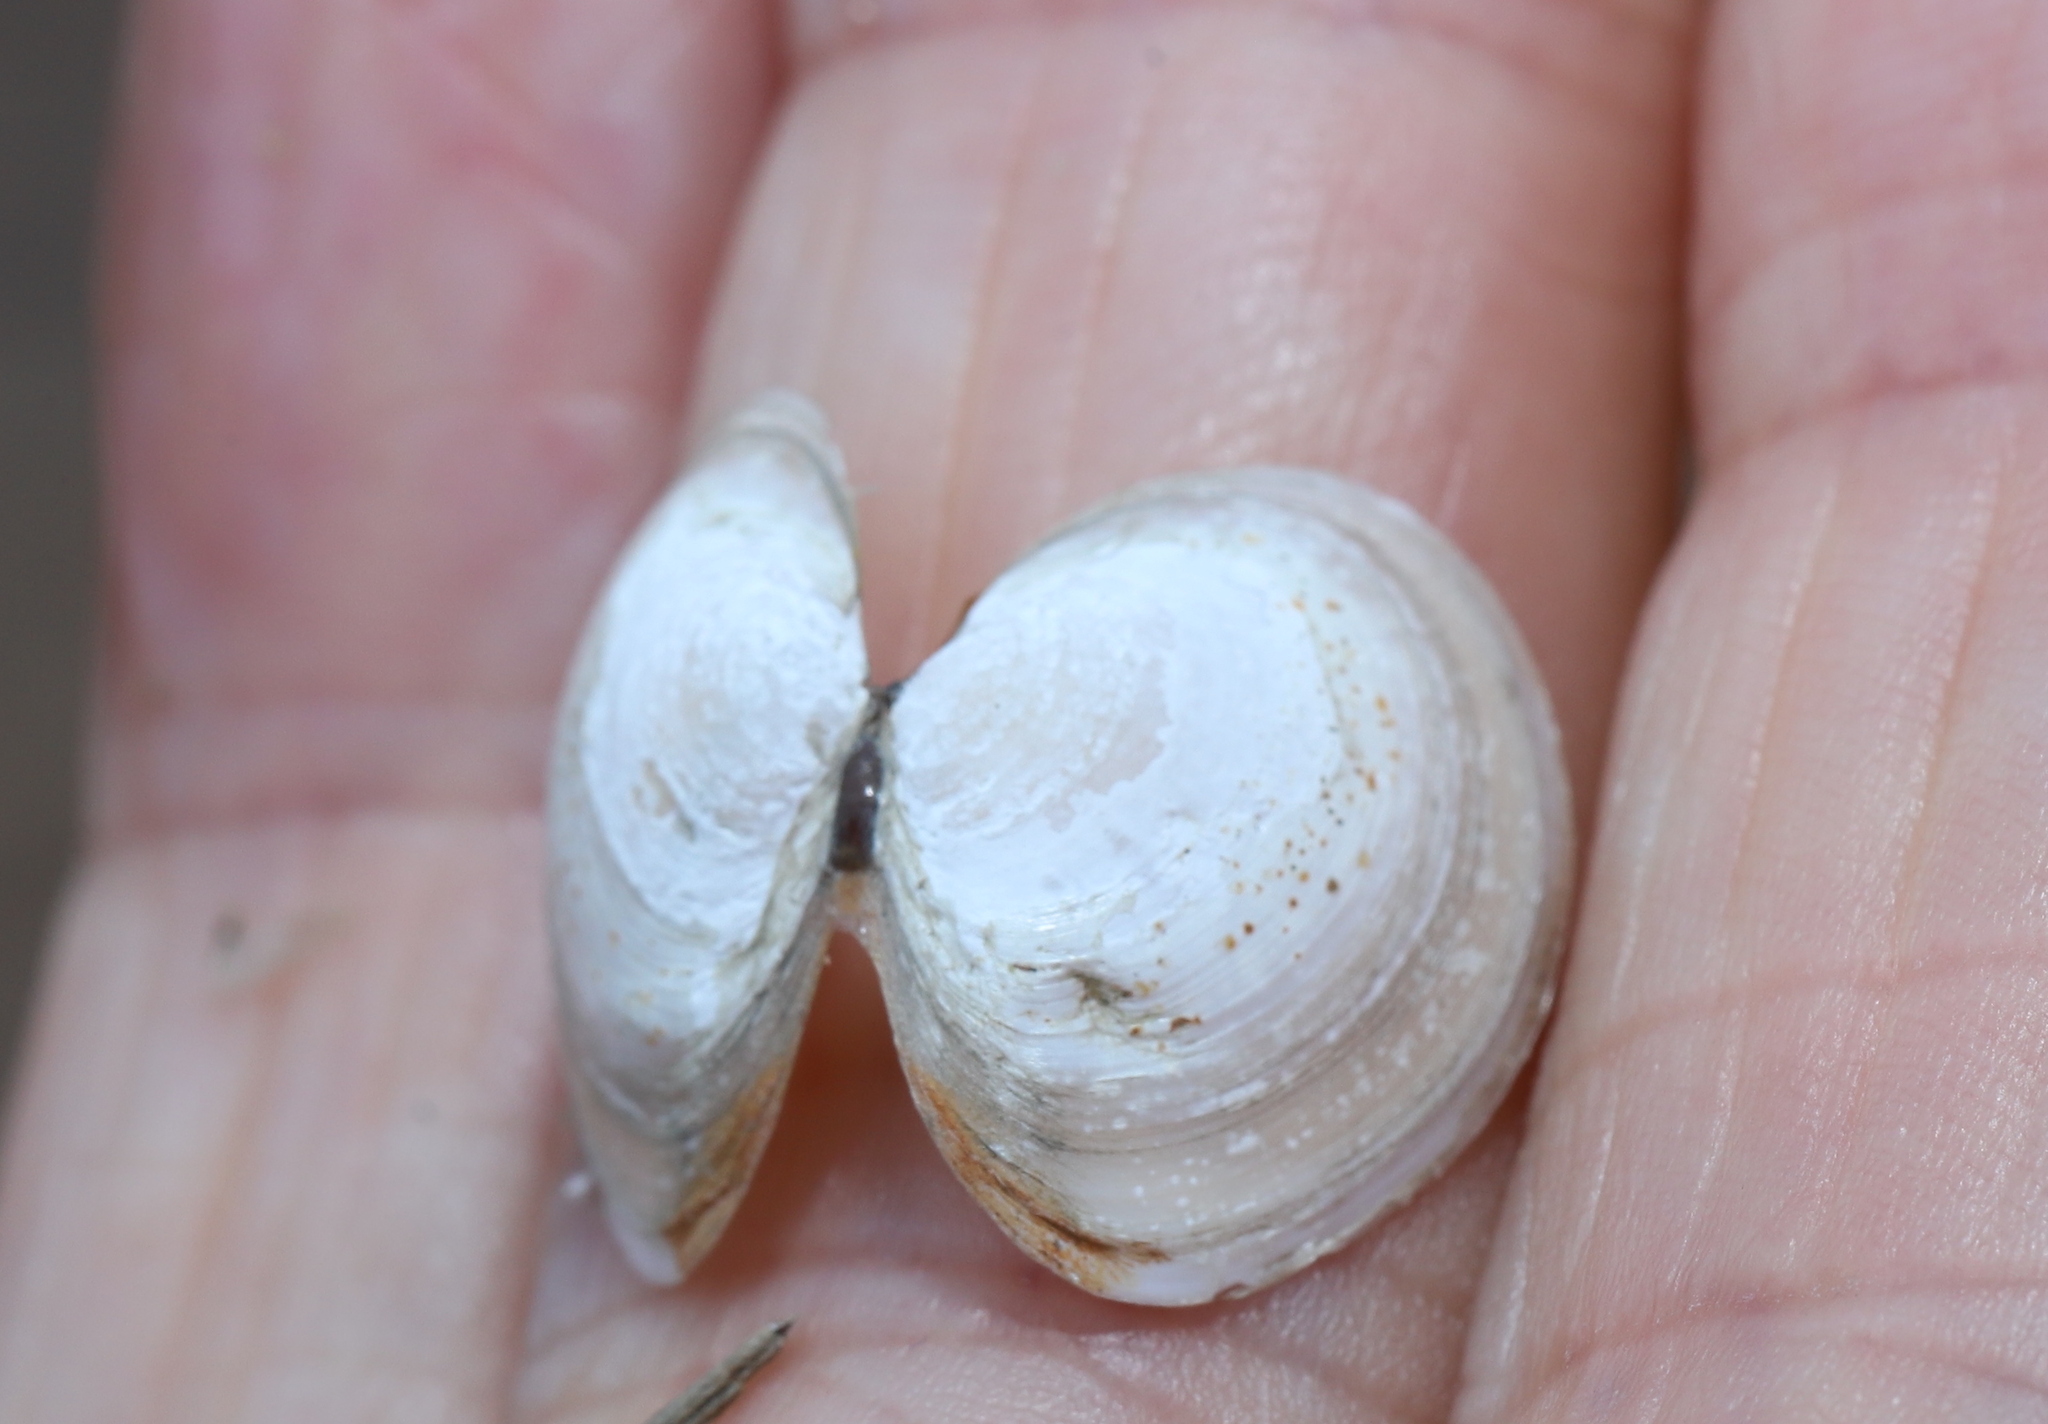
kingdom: Animalia
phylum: Mollusca
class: Bivalvia
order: Cardiida
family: Tellinidae
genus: Macoma
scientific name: Macoma petalum
